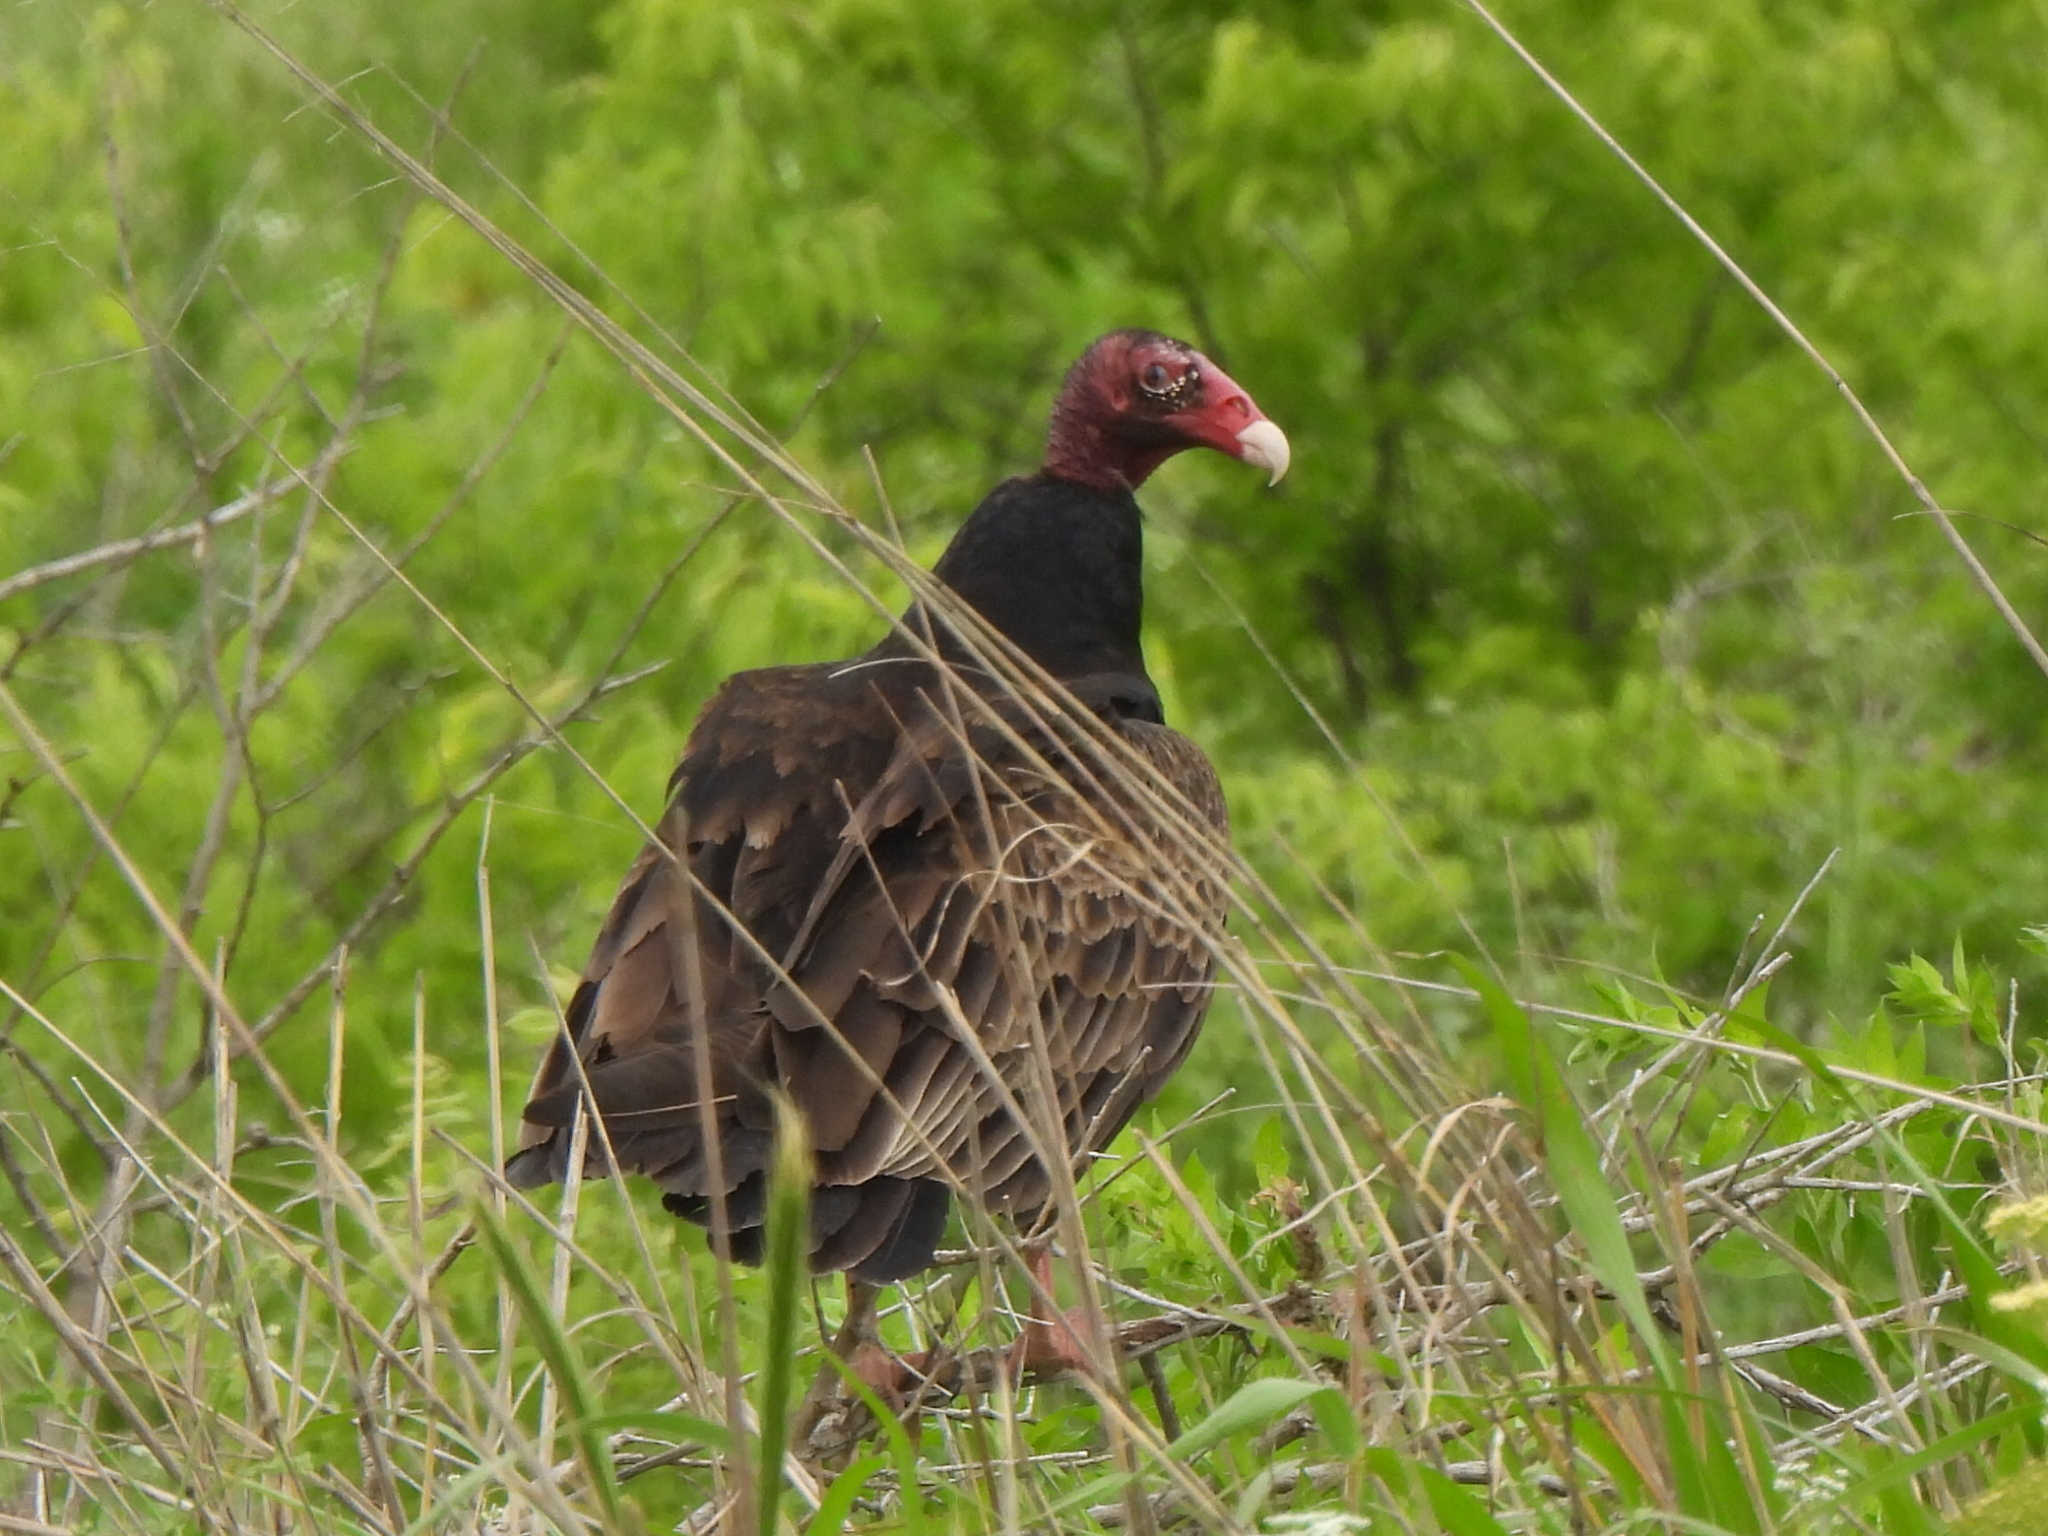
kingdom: Animalia
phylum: Chordata
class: Aves
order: Accipitriformes
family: Cathartidae
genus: Cathartes
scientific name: Cathartes aura
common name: Turkey vulture
